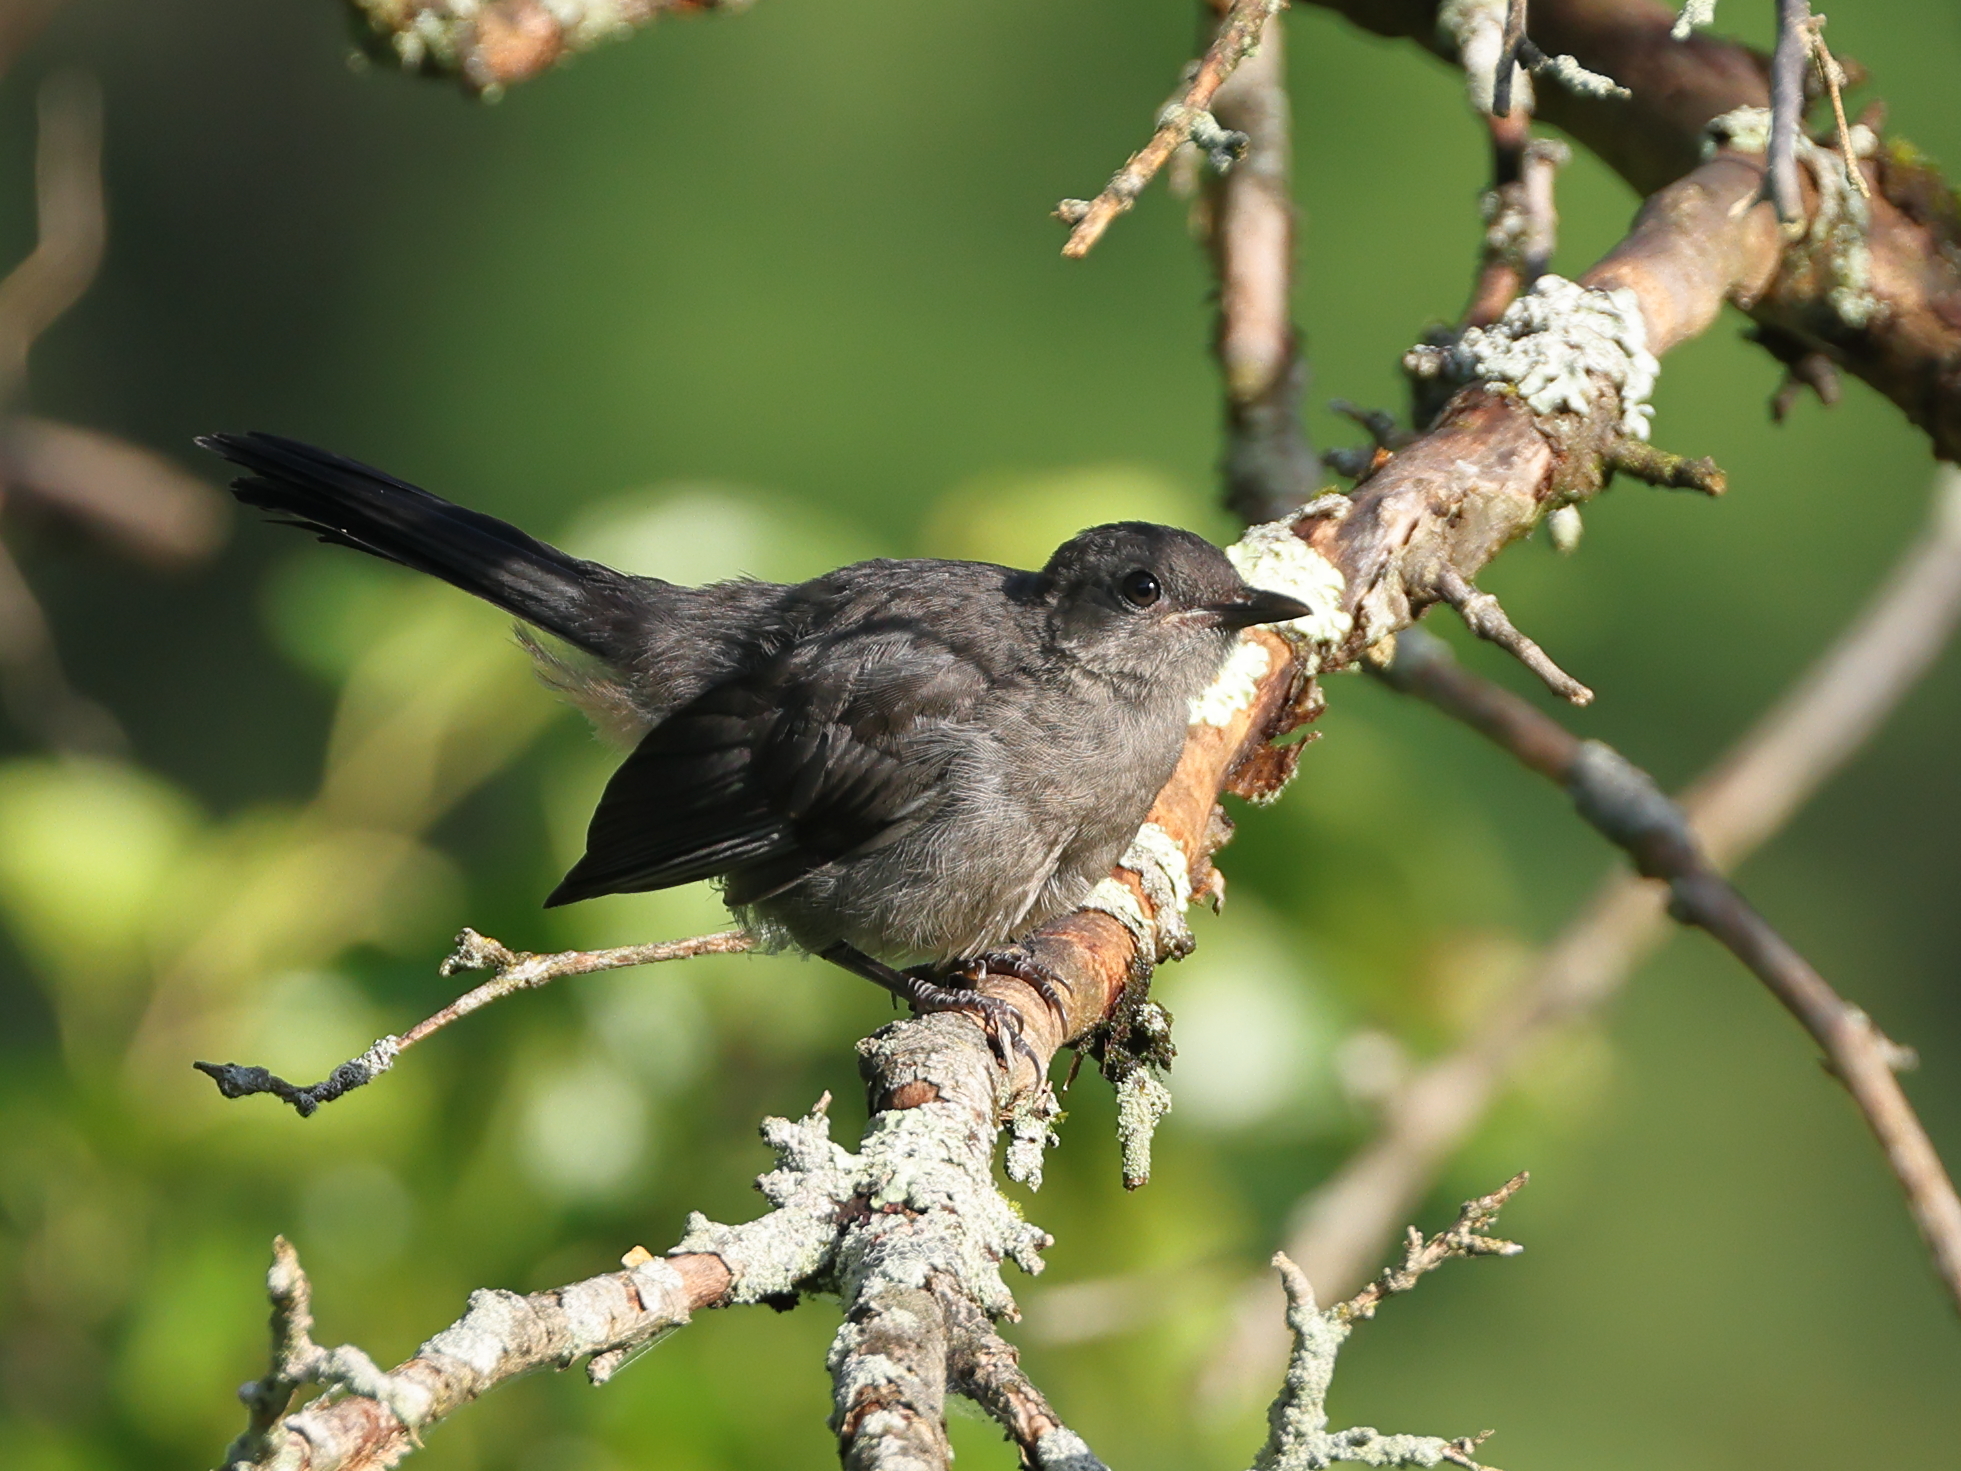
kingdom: Animalia
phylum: Chordata
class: Aves
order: Passeriformes
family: Mimidae
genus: Dumetella
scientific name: Dumetella carolinensis
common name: Gray catbird
